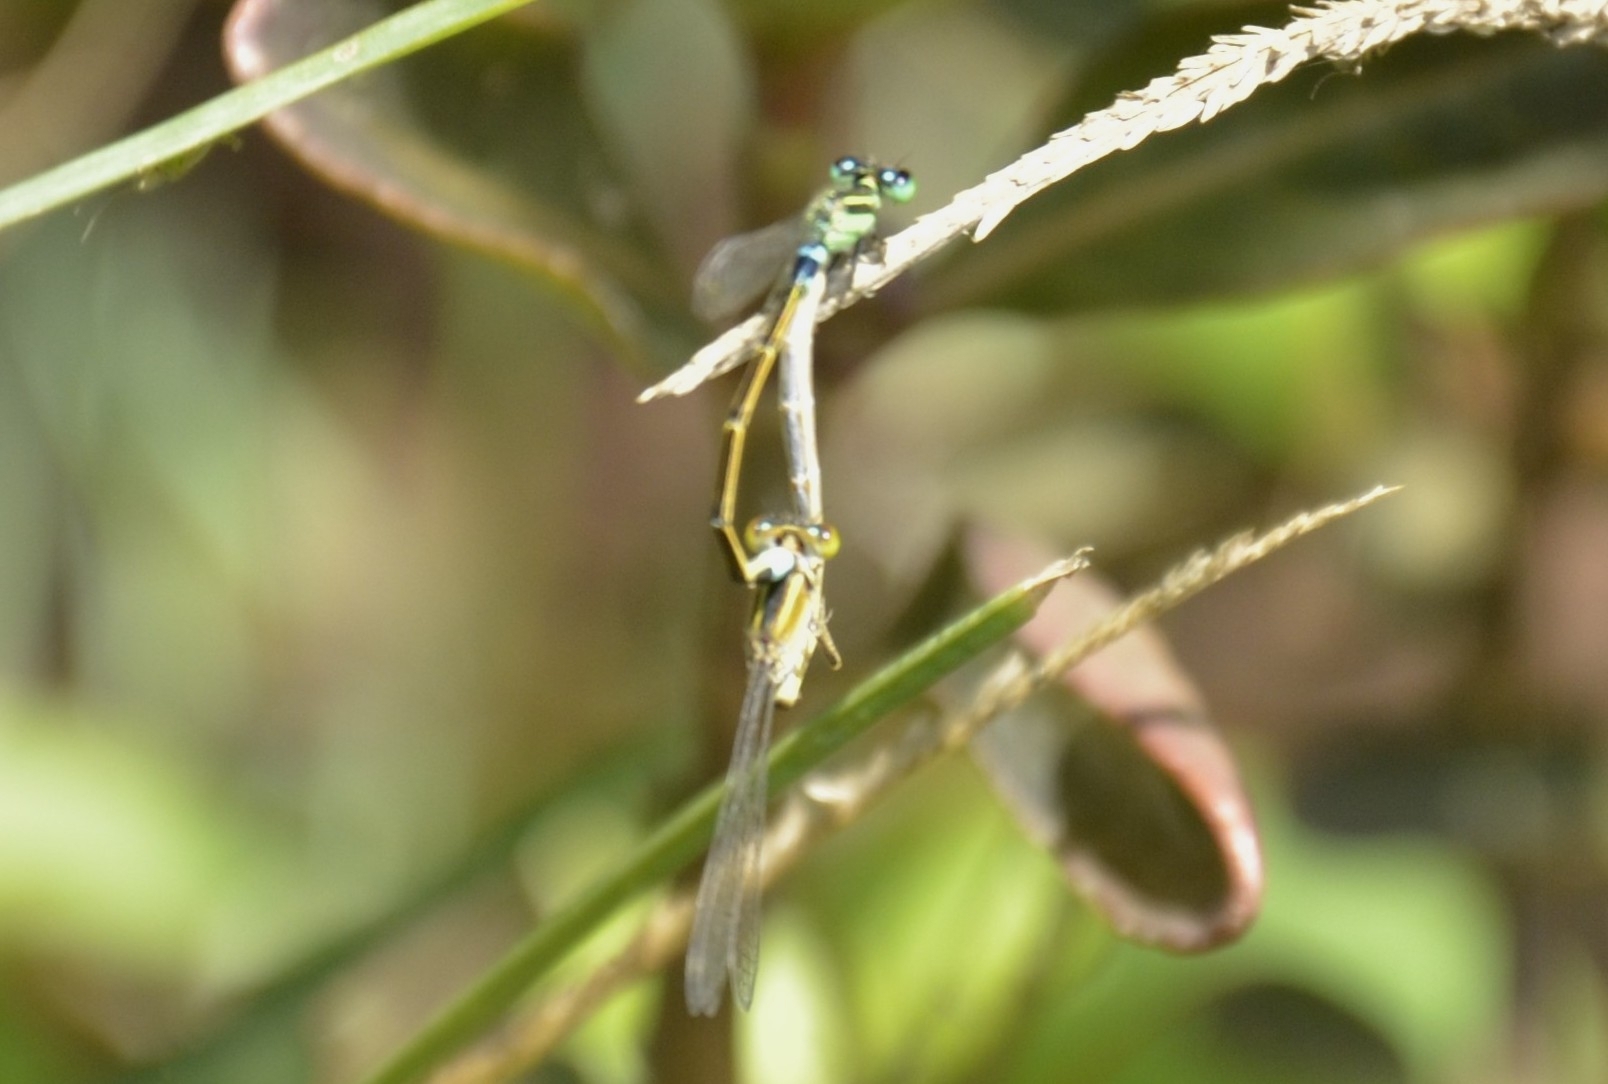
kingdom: Animalia
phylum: Arthropoda
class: Insecta
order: Odonata
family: Coenagrionidae
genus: Ischnura
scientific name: Ischnura senegalensis
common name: Tropical bluetail
